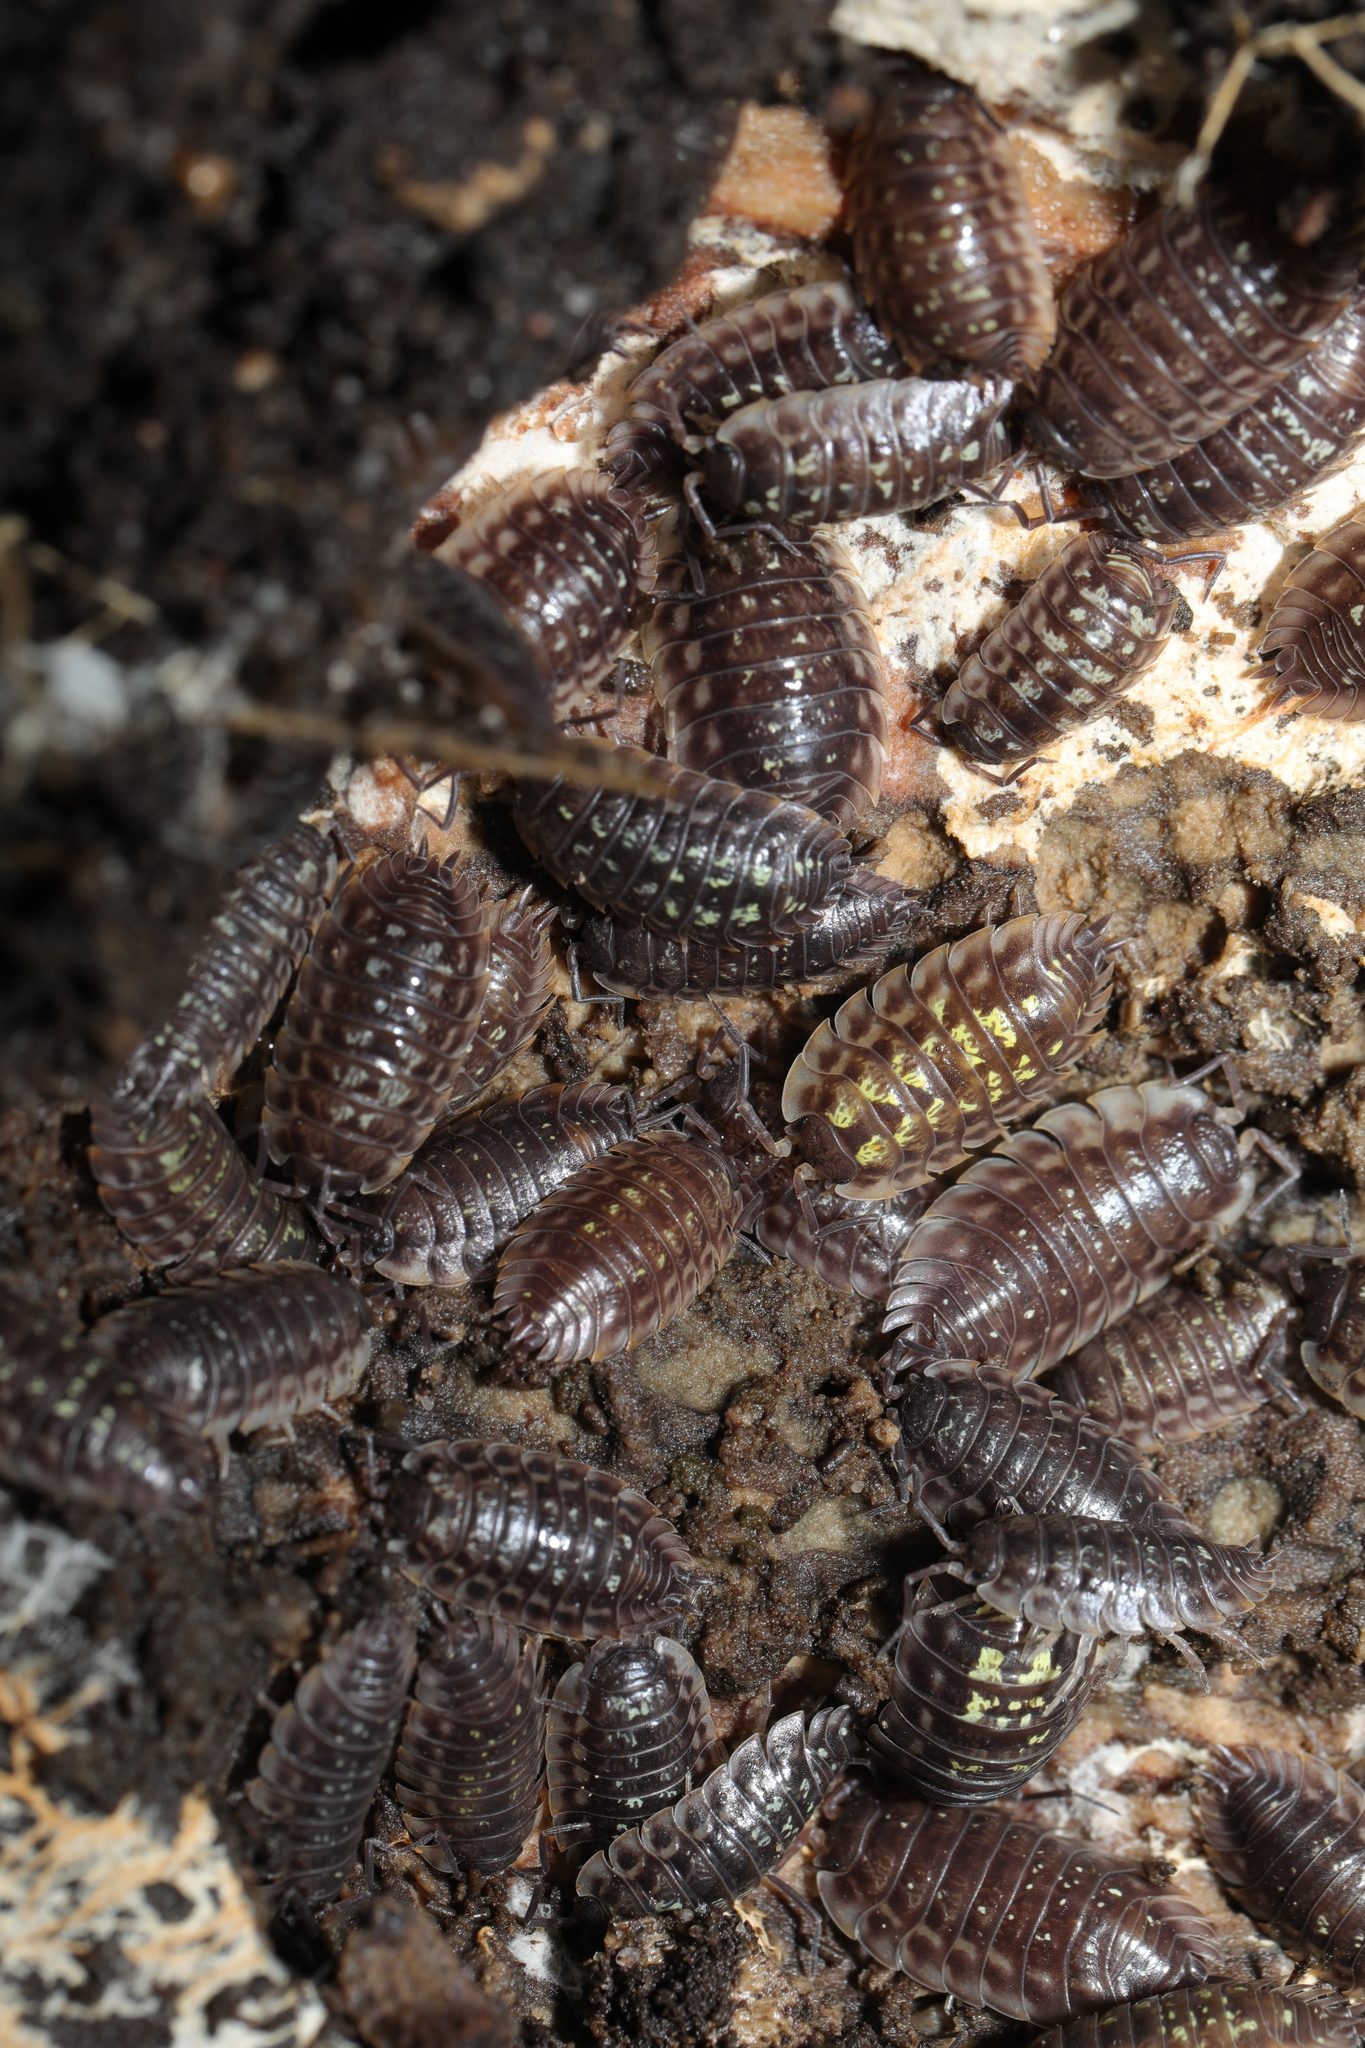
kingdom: Animalia
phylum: Arthropoda
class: Malacostraca
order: Isopoda
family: Oniscidae
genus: Oniscus
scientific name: Oniscus asellus
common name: Common shiny woodlouse
